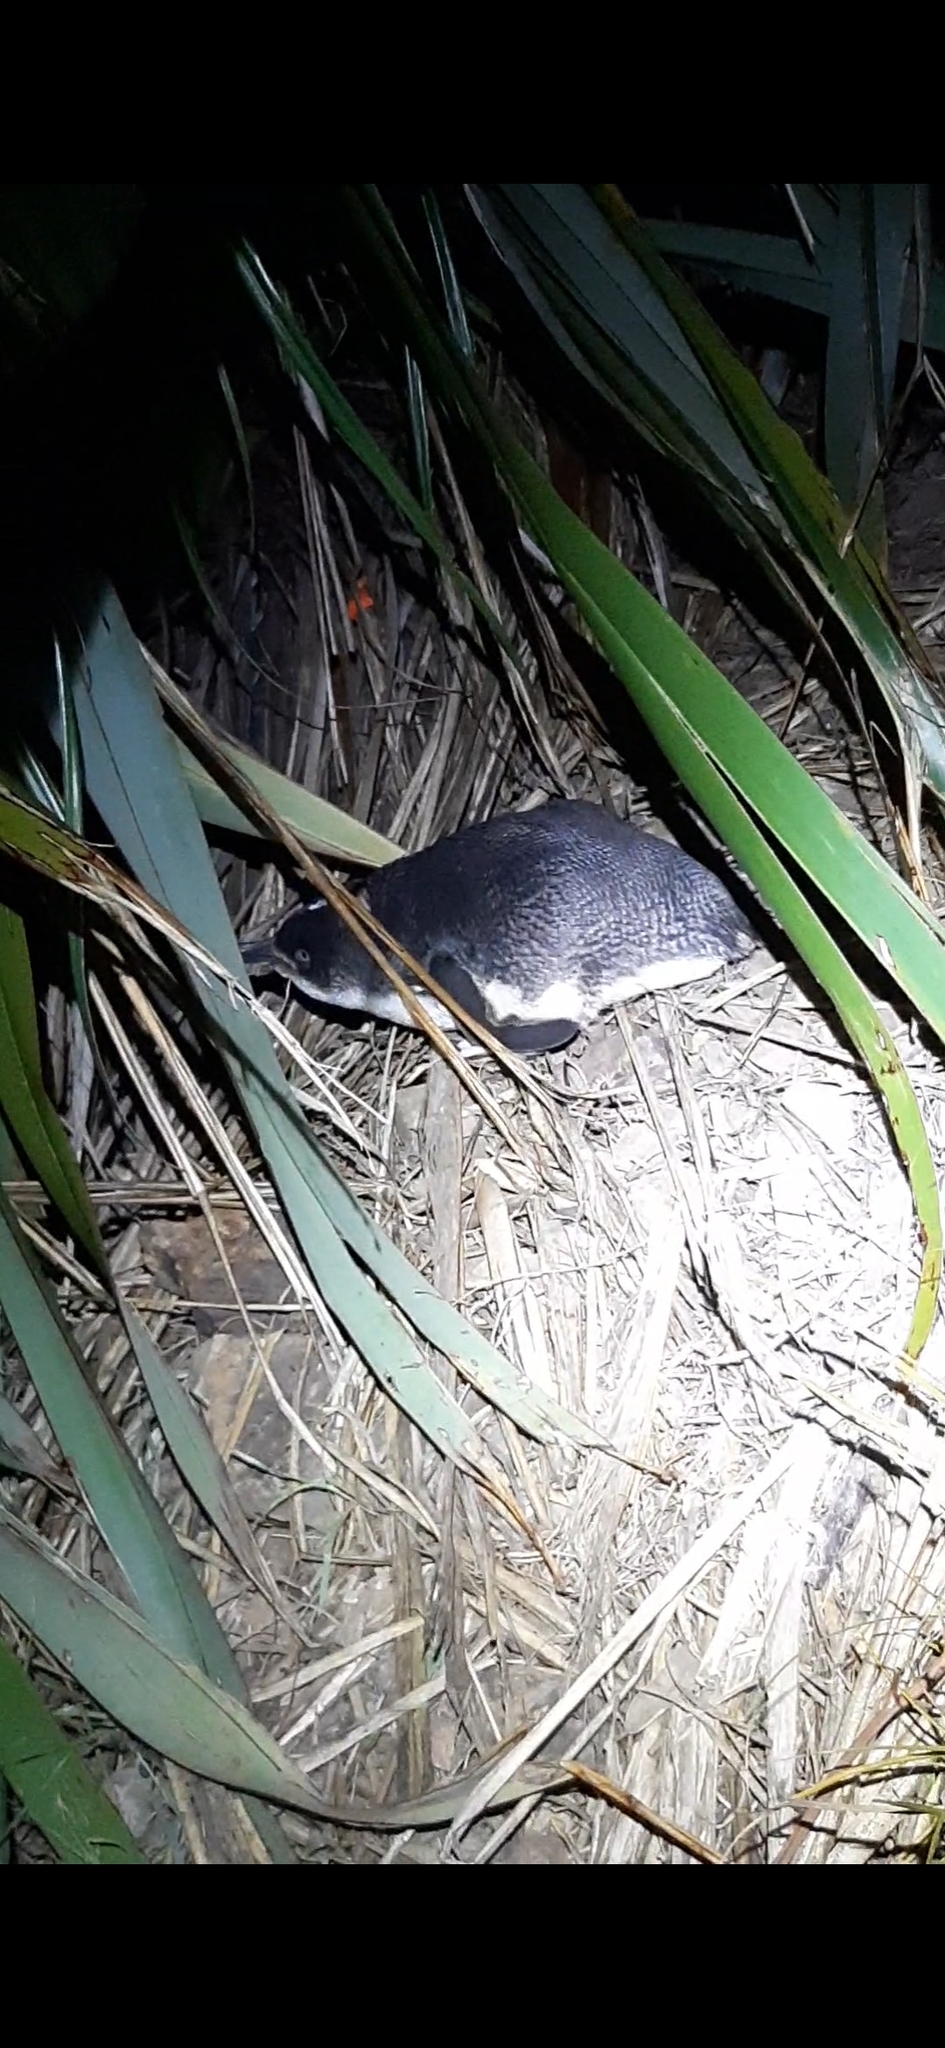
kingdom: Animalia
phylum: Chordata
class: Aves
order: Sphenisciformes
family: Spheniscidae
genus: Eudyptula
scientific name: Eudyptula minor
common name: Little penguin
